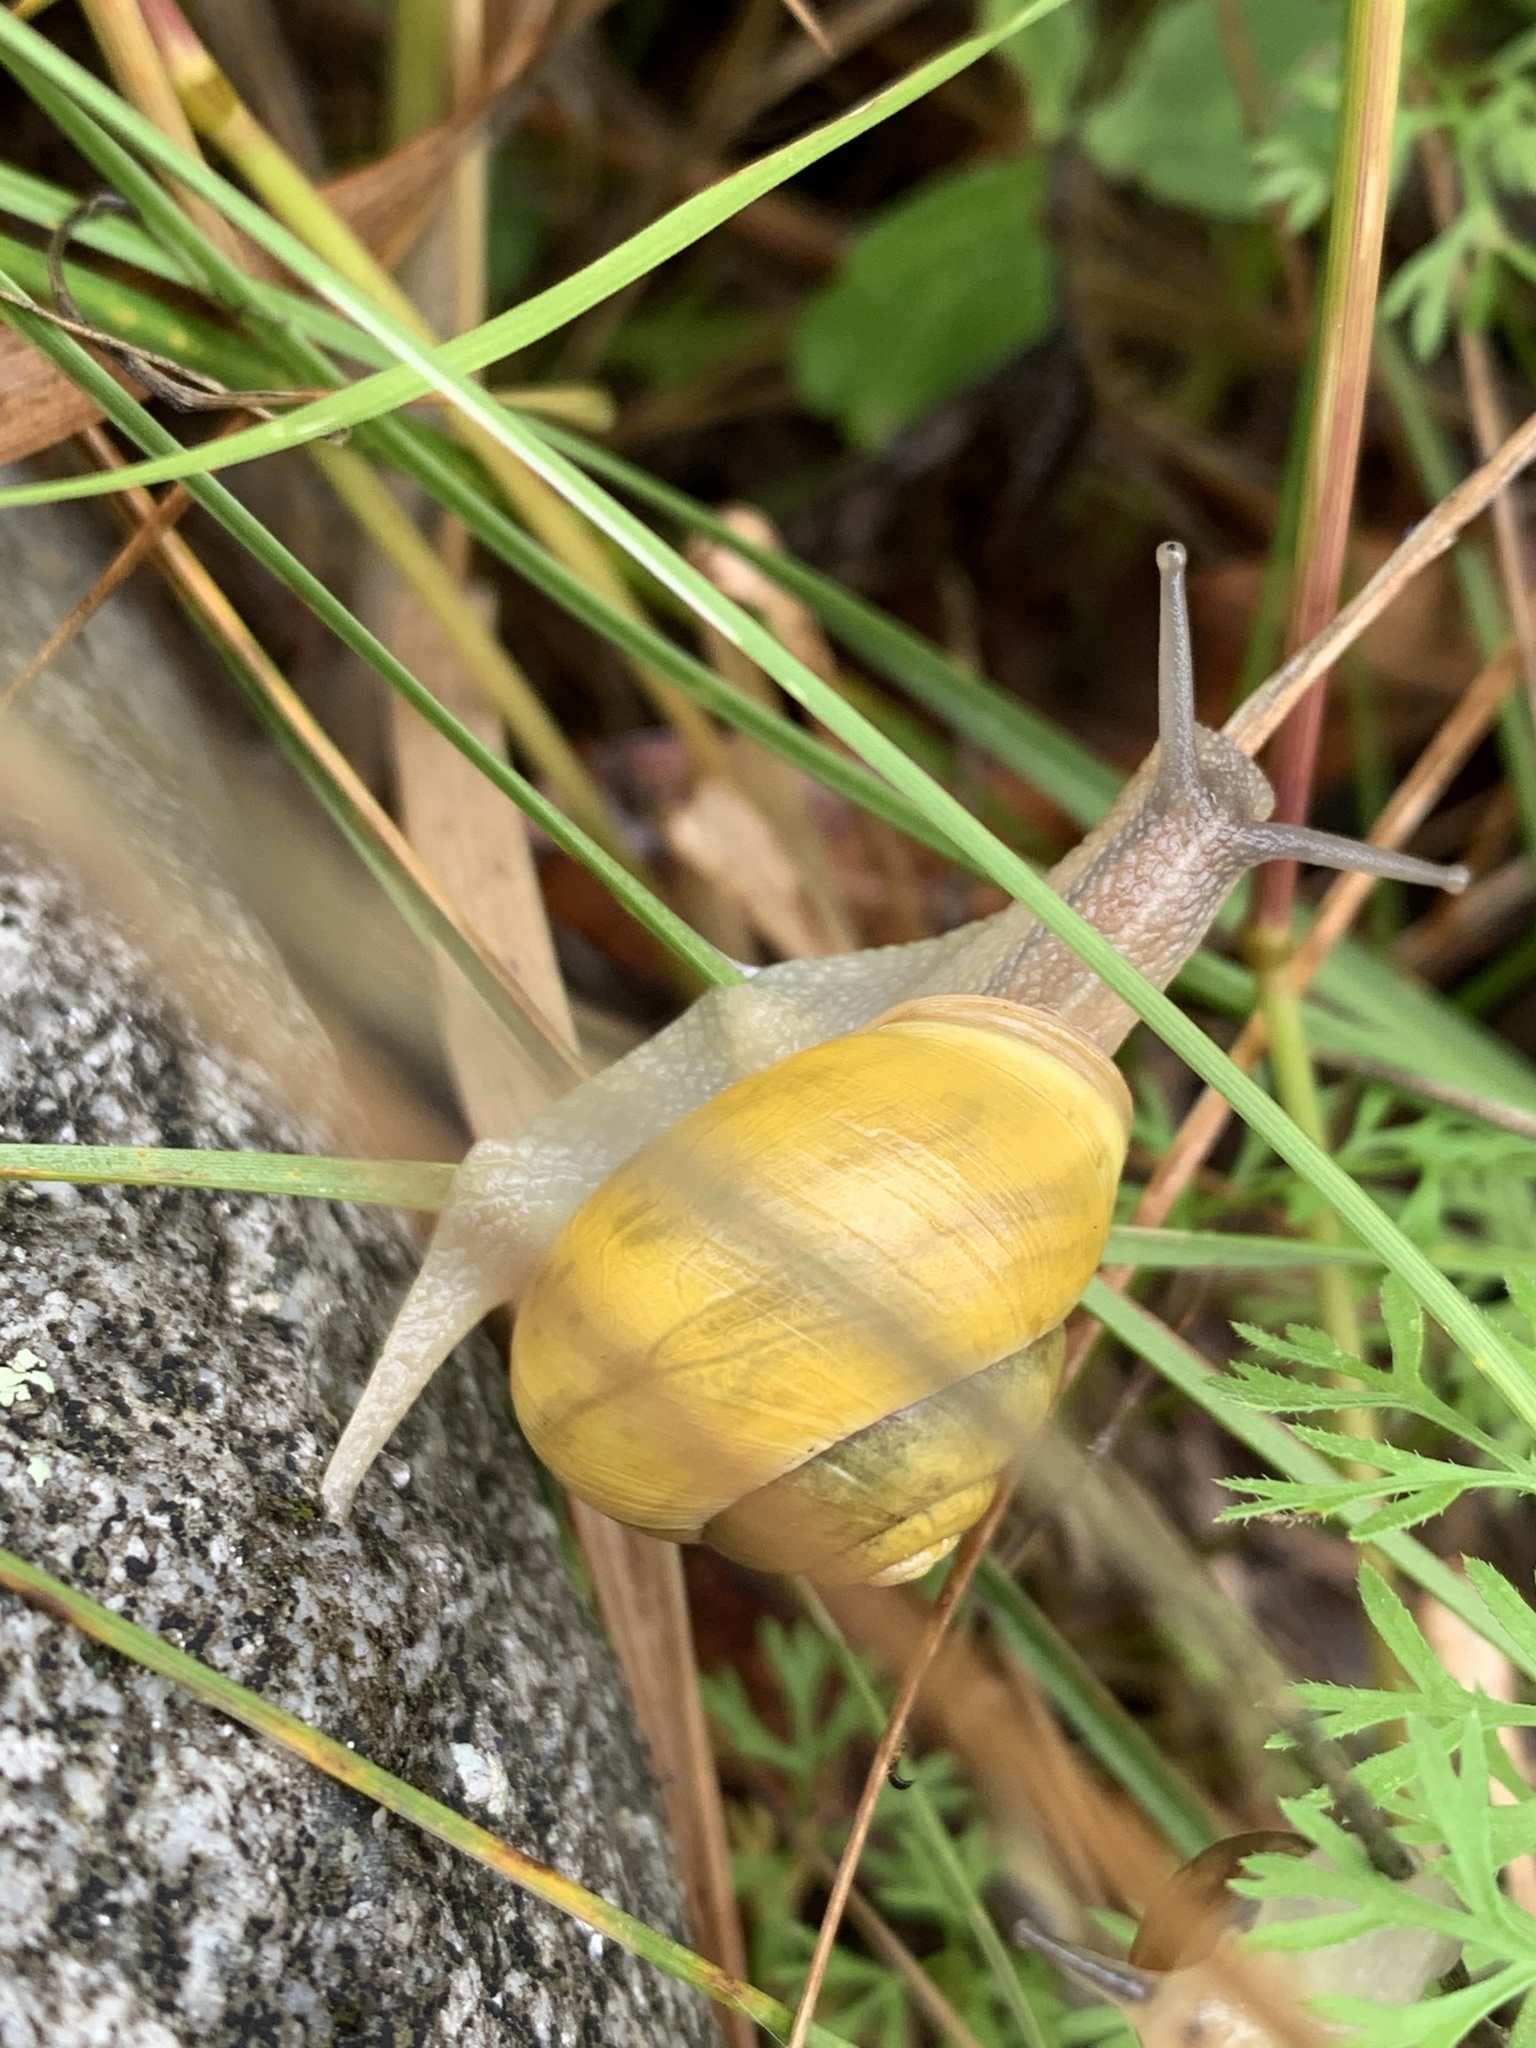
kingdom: Animalia
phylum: Mollusca
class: Gastropoda
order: Stylommatophora
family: Helicidae
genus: Cepaea
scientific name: Cepaea hortensis
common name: White-lip gardensnail
